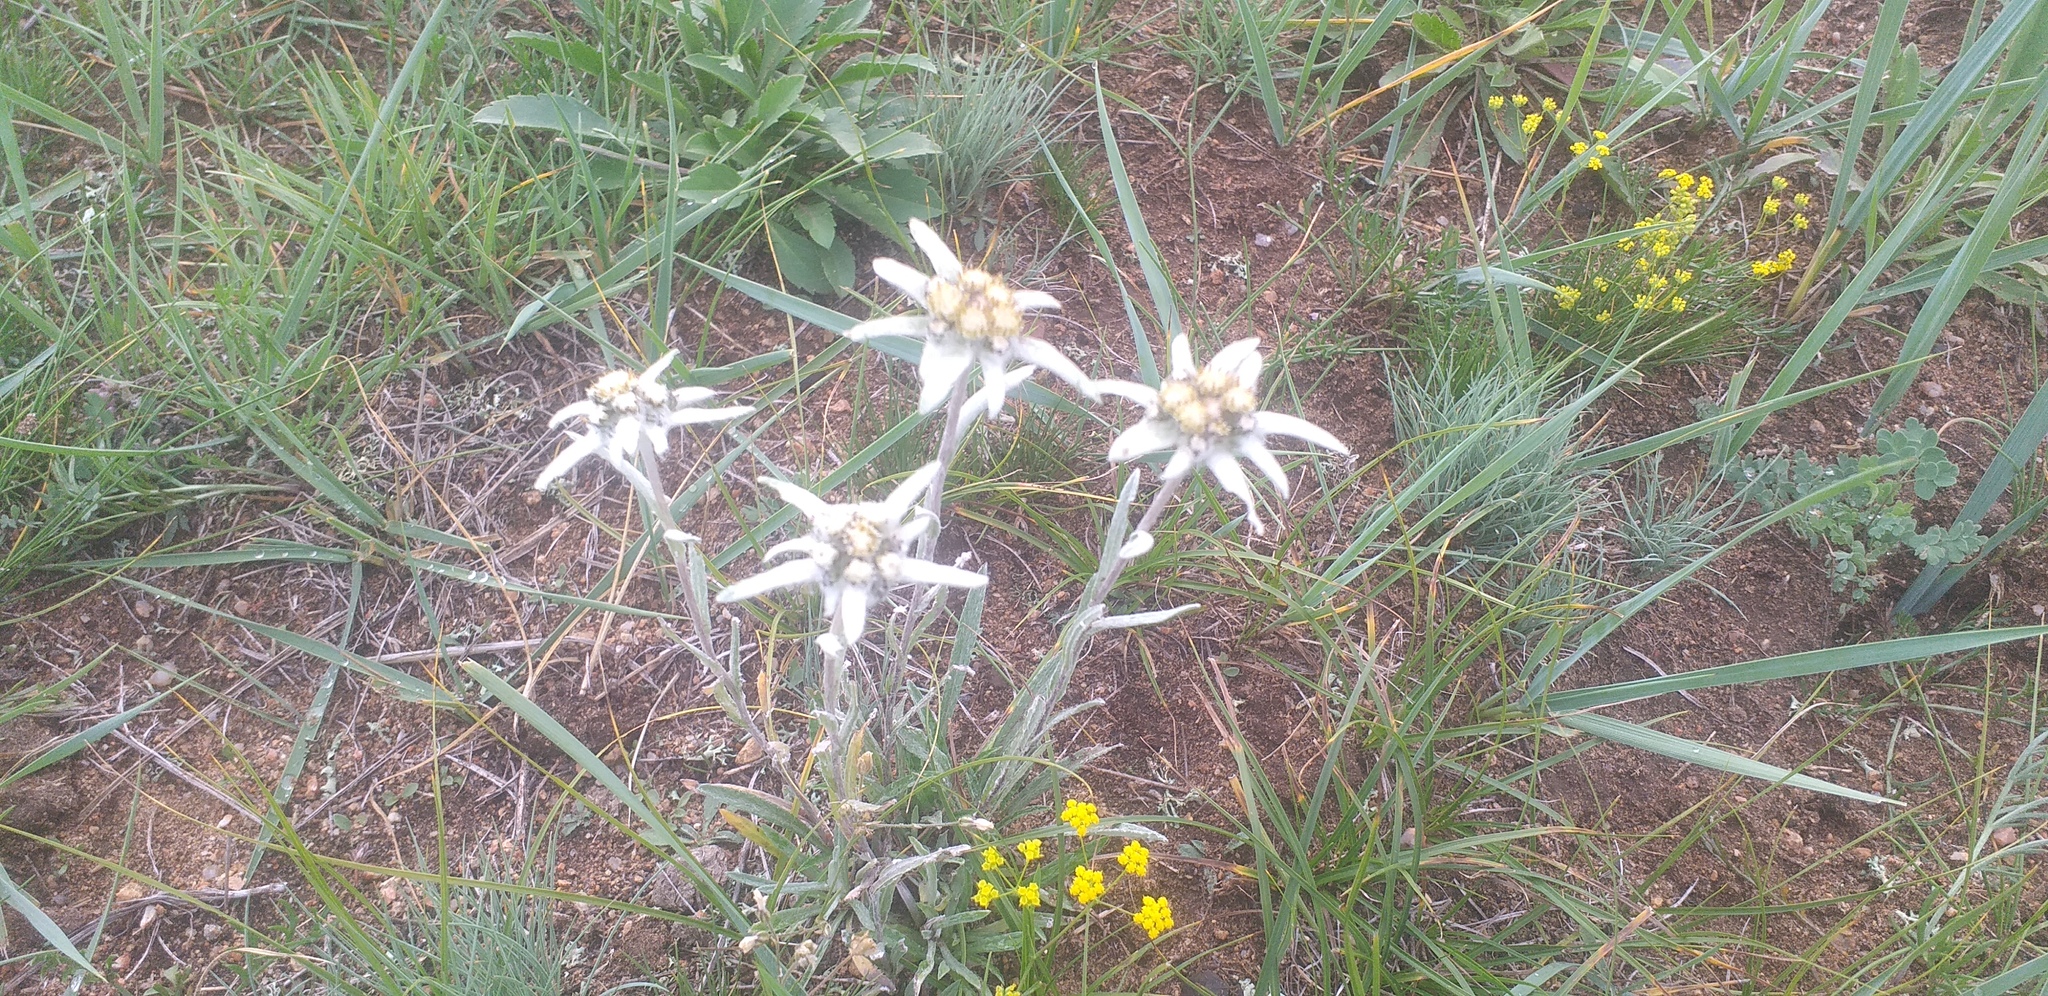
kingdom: Plantae
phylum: Tracheophyta
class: Magnoliopsida
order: Asterales
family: Asteraceae
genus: Leontopodium
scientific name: Leontopodium leontopodioides
